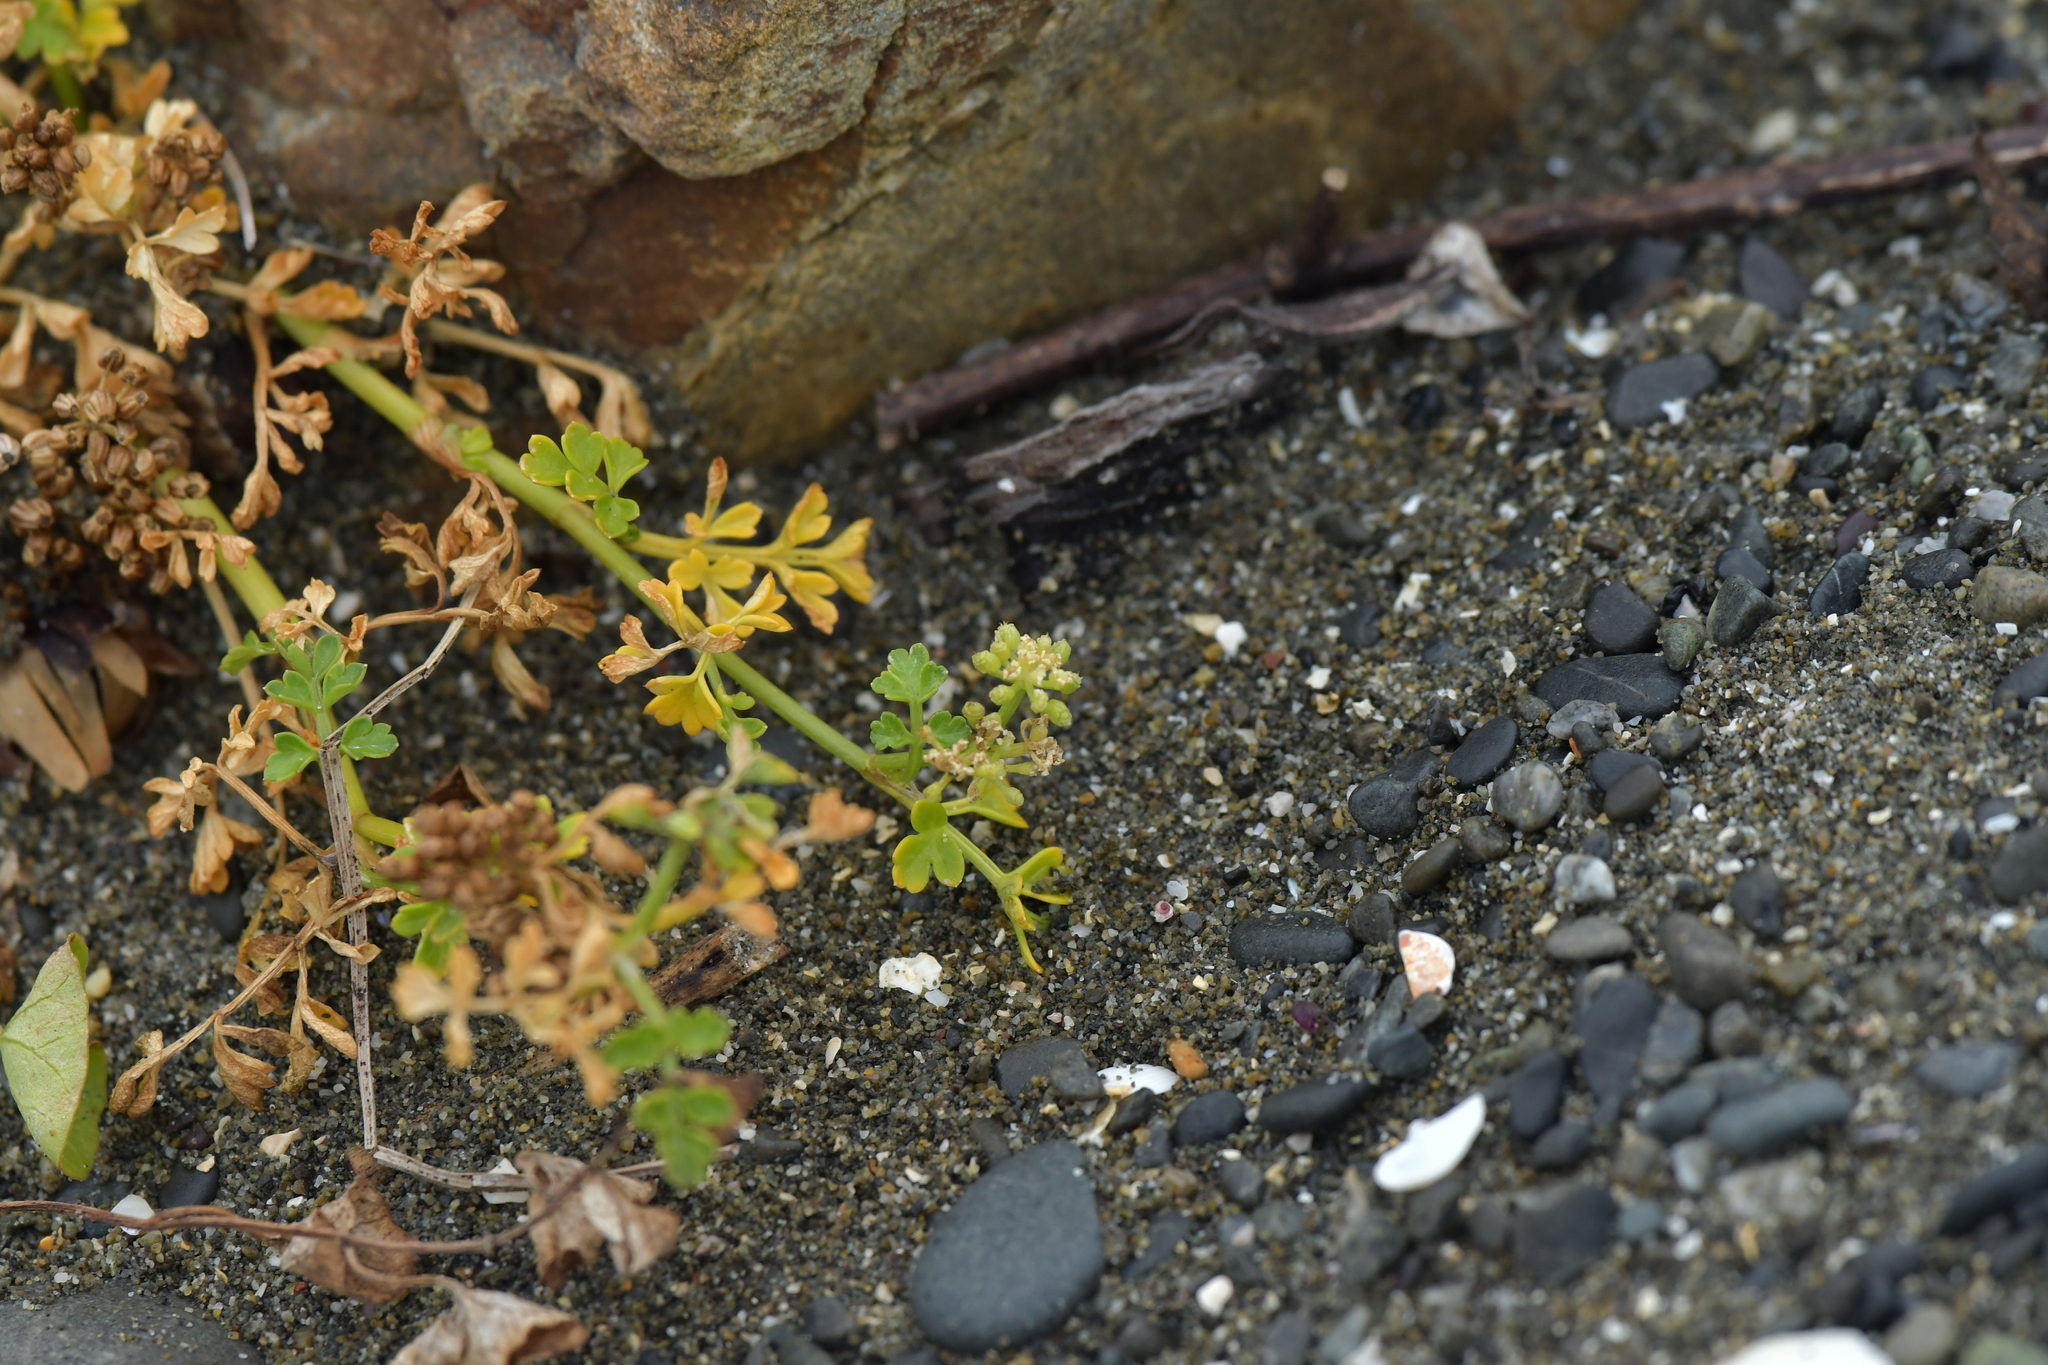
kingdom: Plantae
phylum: Tracheophyta
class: Magnoliopsida
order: Apiales
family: Apiaceae
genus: Apium
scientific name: Apium prostratum
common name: Prostrate marshwort
